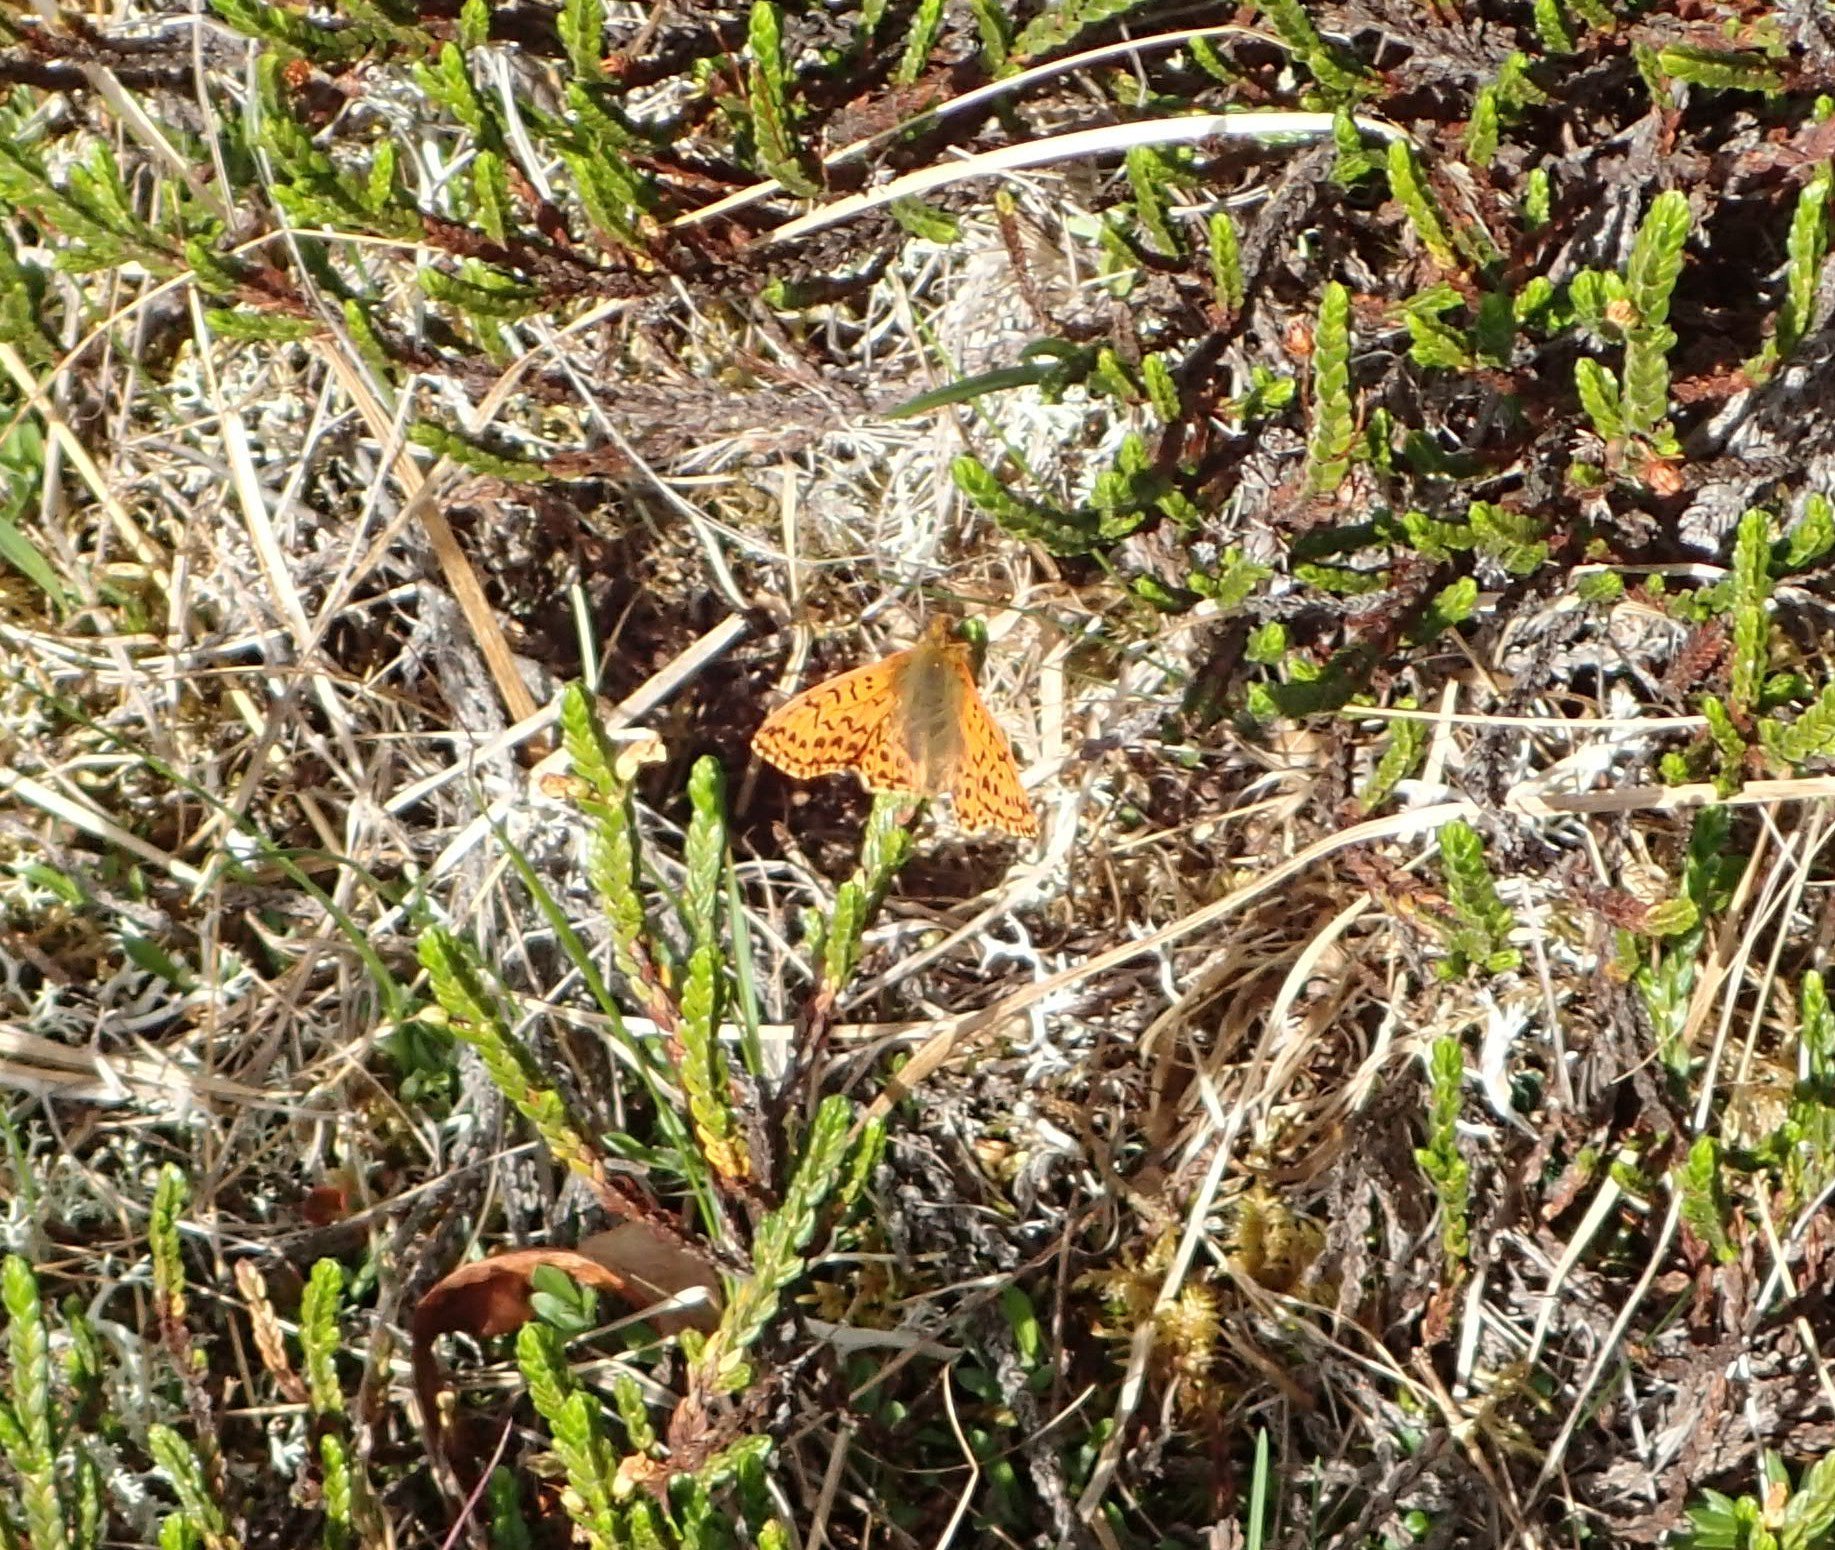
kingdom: Animalia
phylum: Arthropoda
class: Insecta
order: Lepidoptera
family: Nymphalidae
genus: Boloria
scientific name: Boloria alaskensis
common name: Alaskan fritillary
